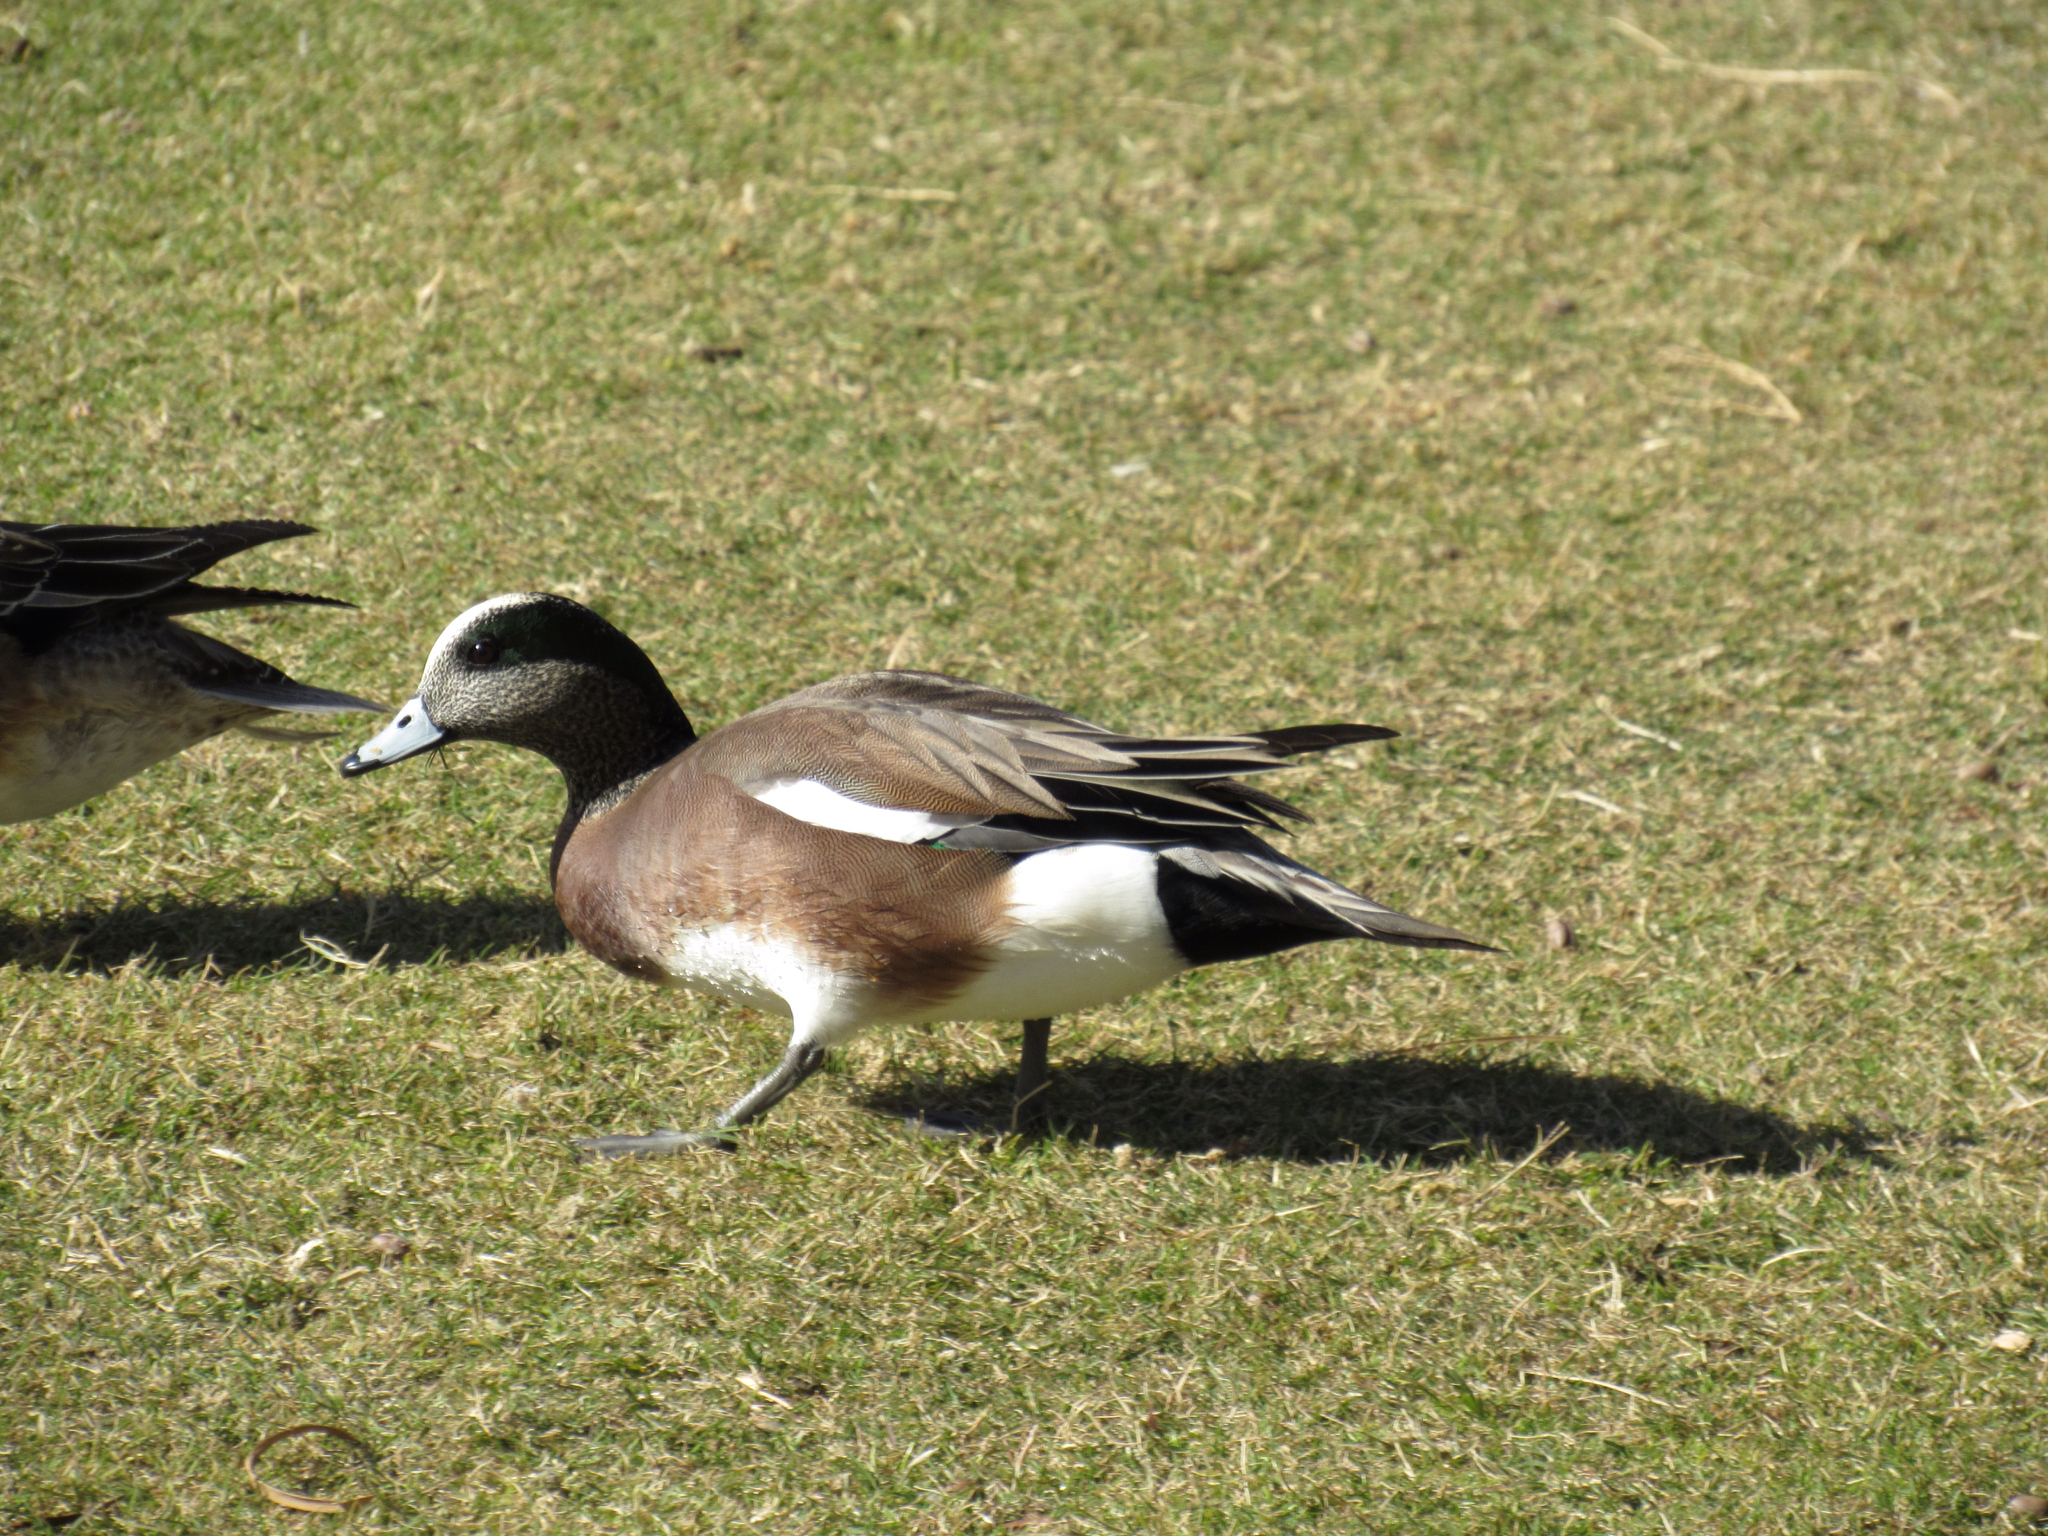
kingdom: Animalia
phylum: Chordata
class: Aves
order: Anseriformes
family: Anatidae
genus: Mareca
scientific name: Mareca americana
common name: American wigeon
